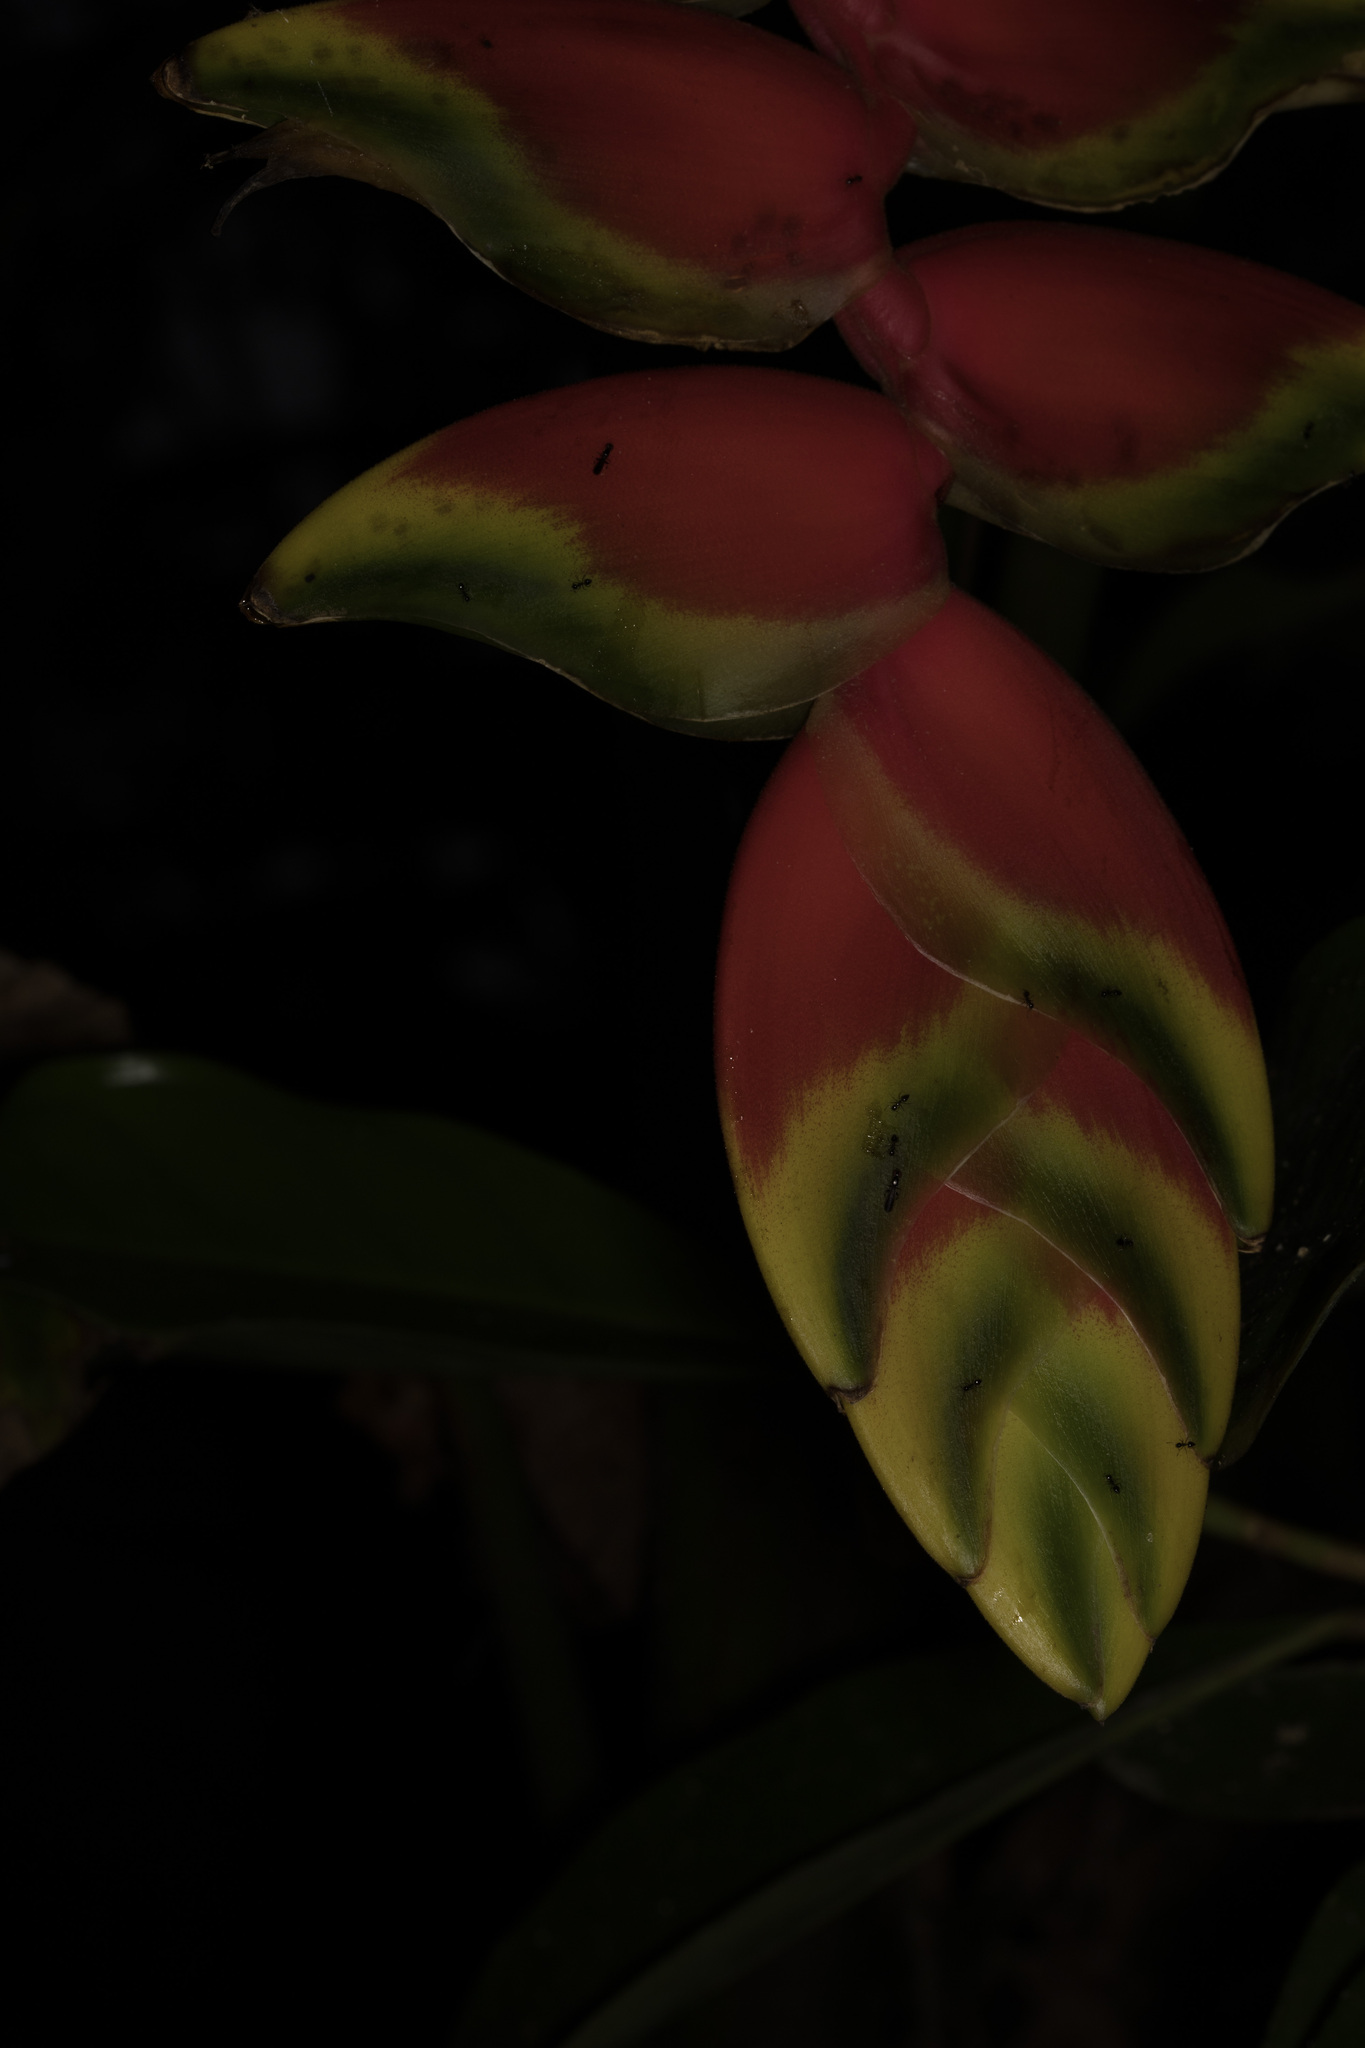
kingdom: Plantae
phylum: Tracheophyta
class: Liliopsida
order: Zingiberales
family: Heliconiaceae
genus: Heliconia
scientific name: Heliconia rostrata
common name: False bird of paradise
